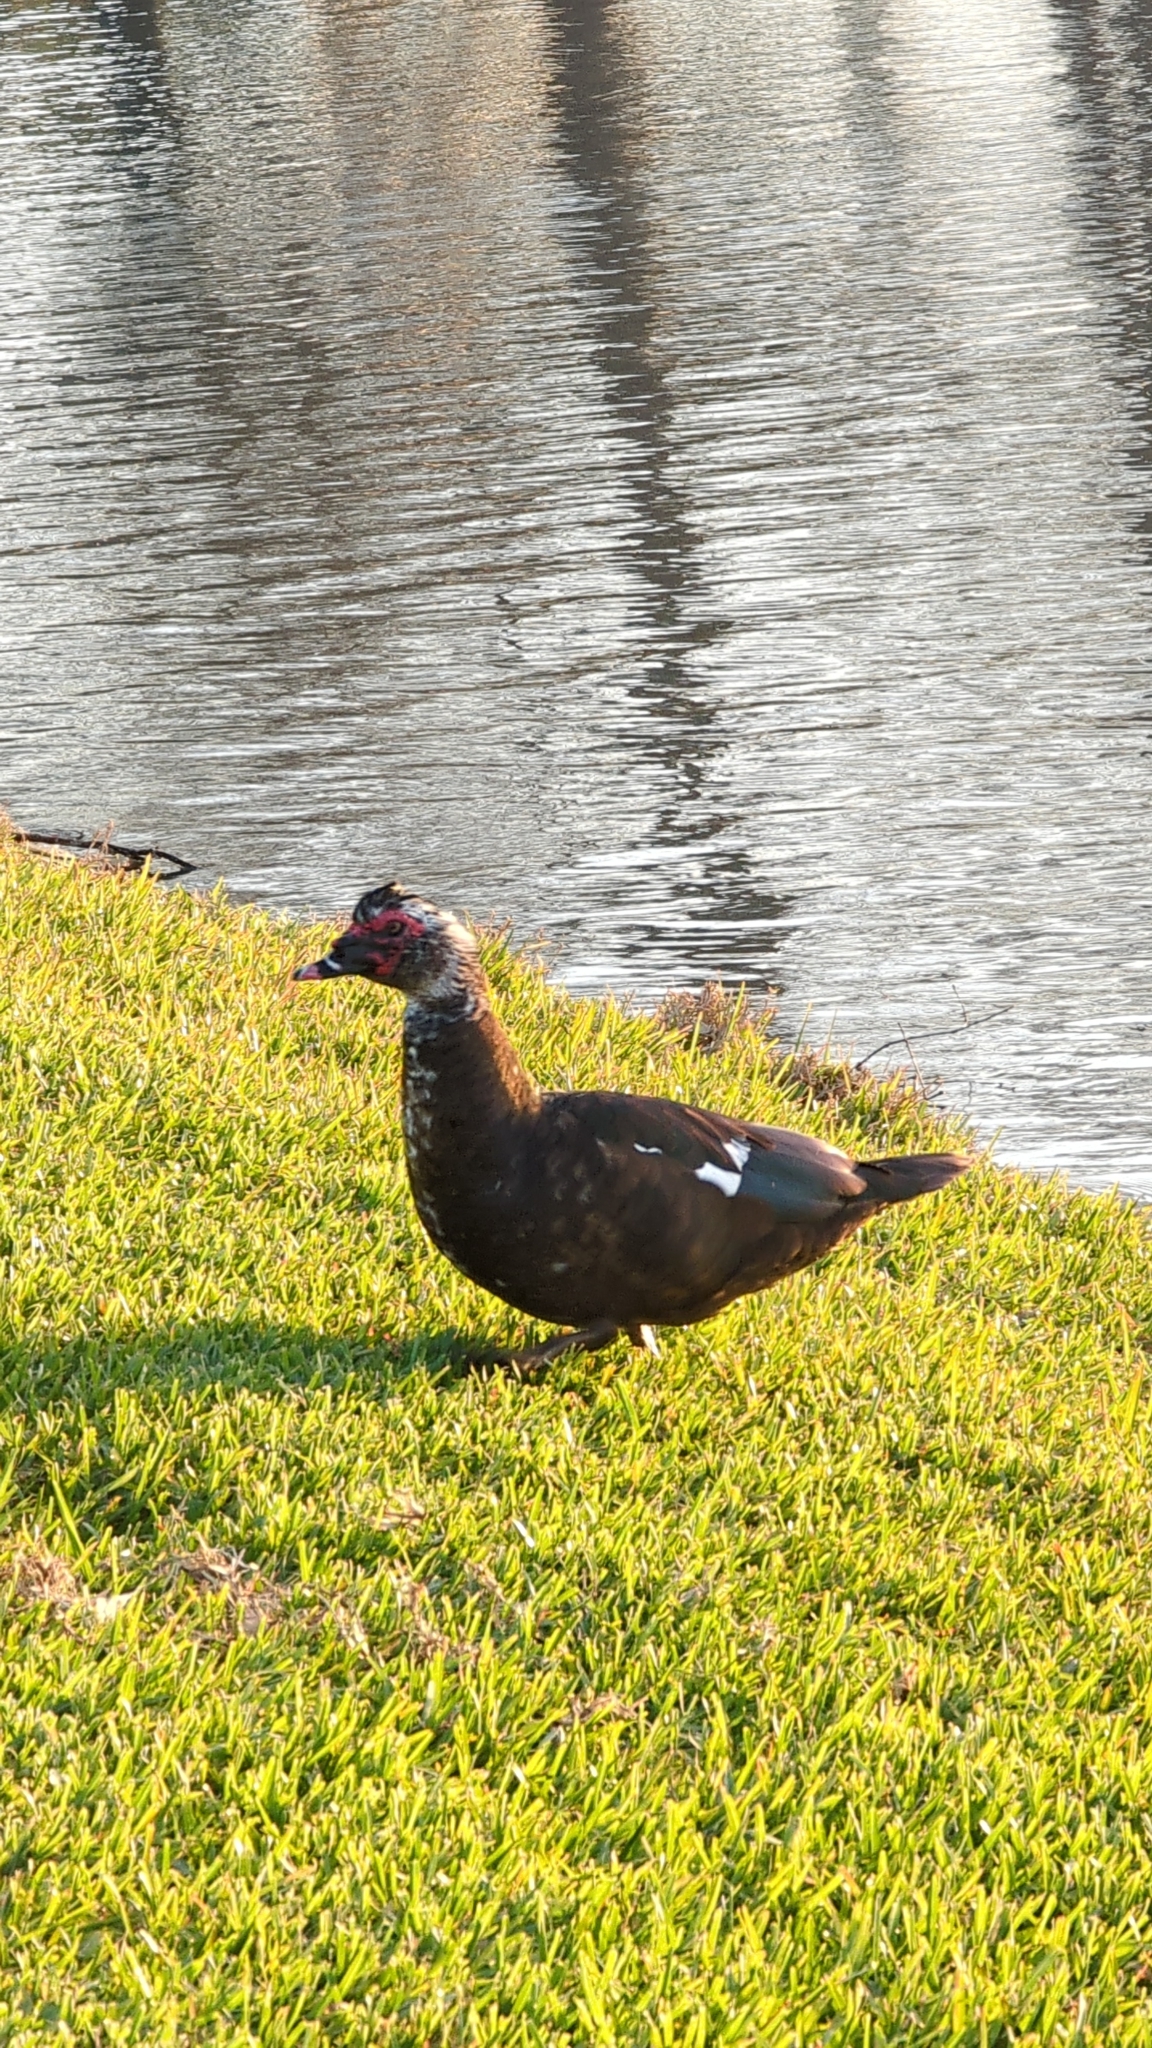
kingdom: Animalia
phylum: Chordata
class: Aves
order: Anseriformes
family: Anatidae
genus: Cairina
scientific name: Cairina moschata
